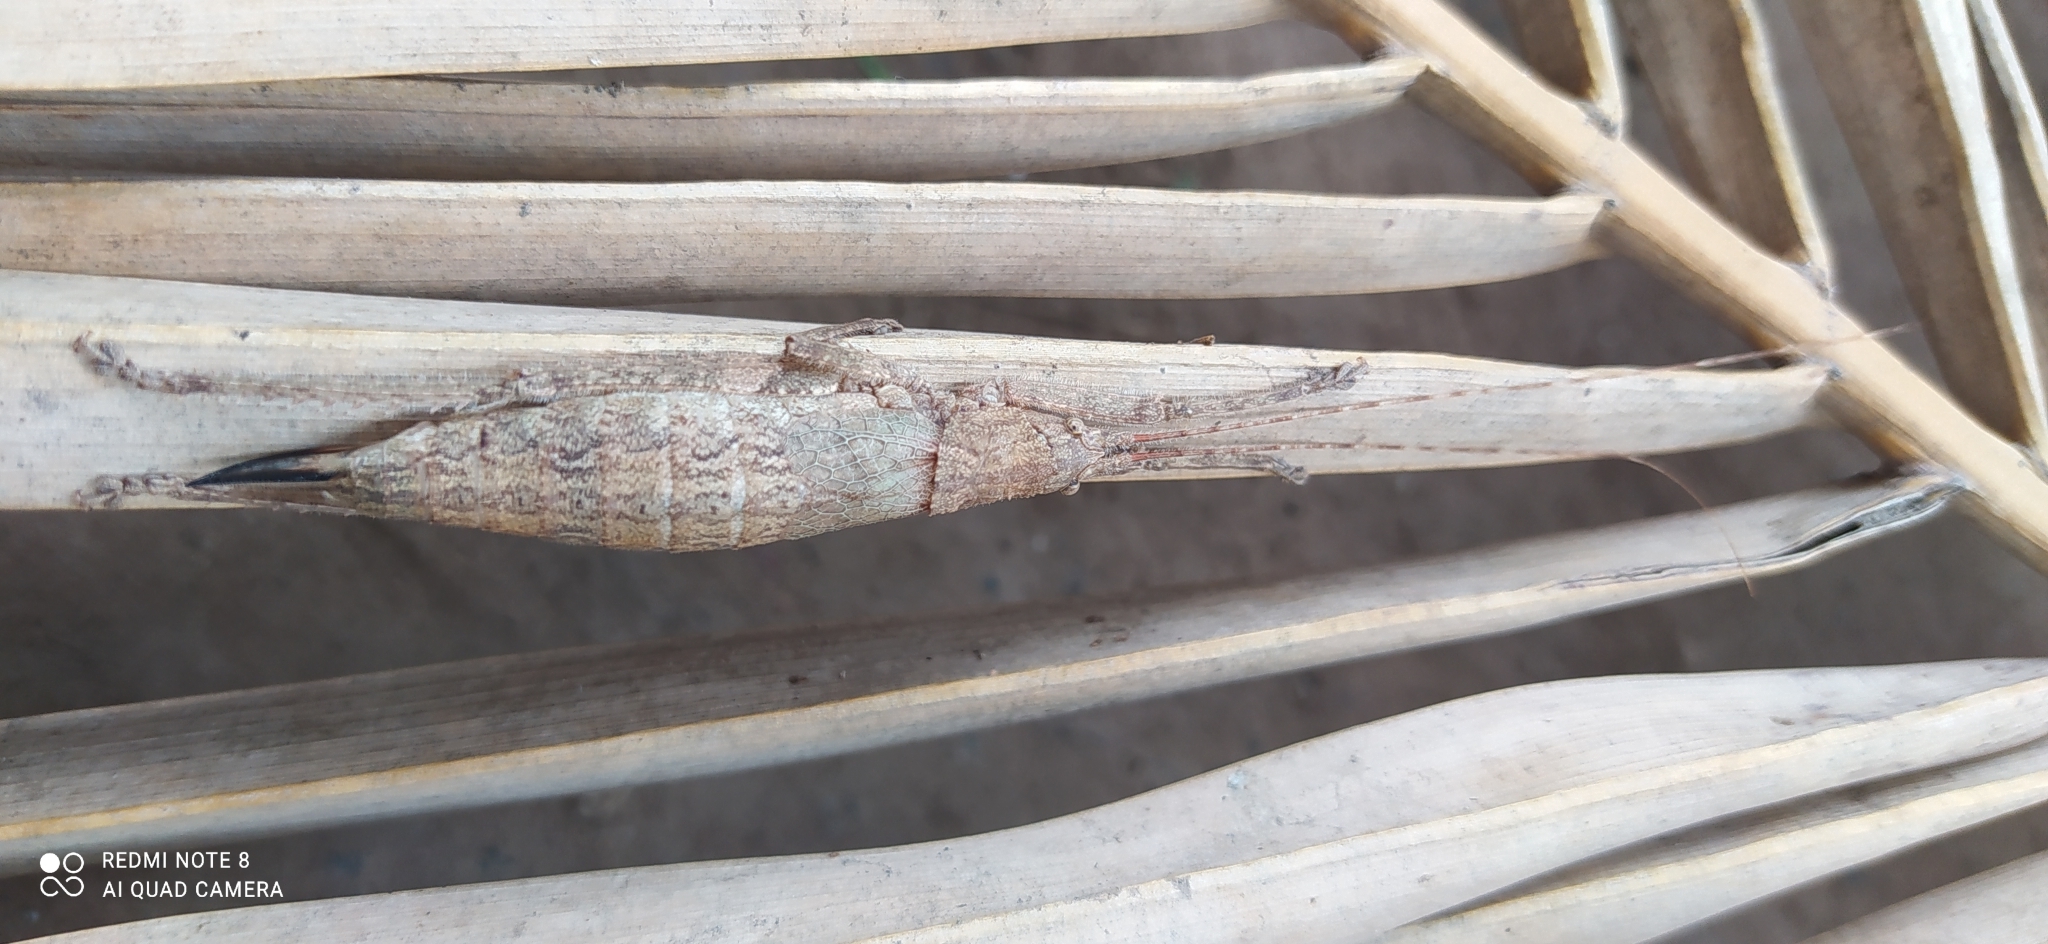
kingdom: Animalia
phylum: Arthropoda
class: Insecta
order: Orthoptera
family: Tettigoniidae
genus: Dasyscelus
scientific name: Dasyscelus normalis
